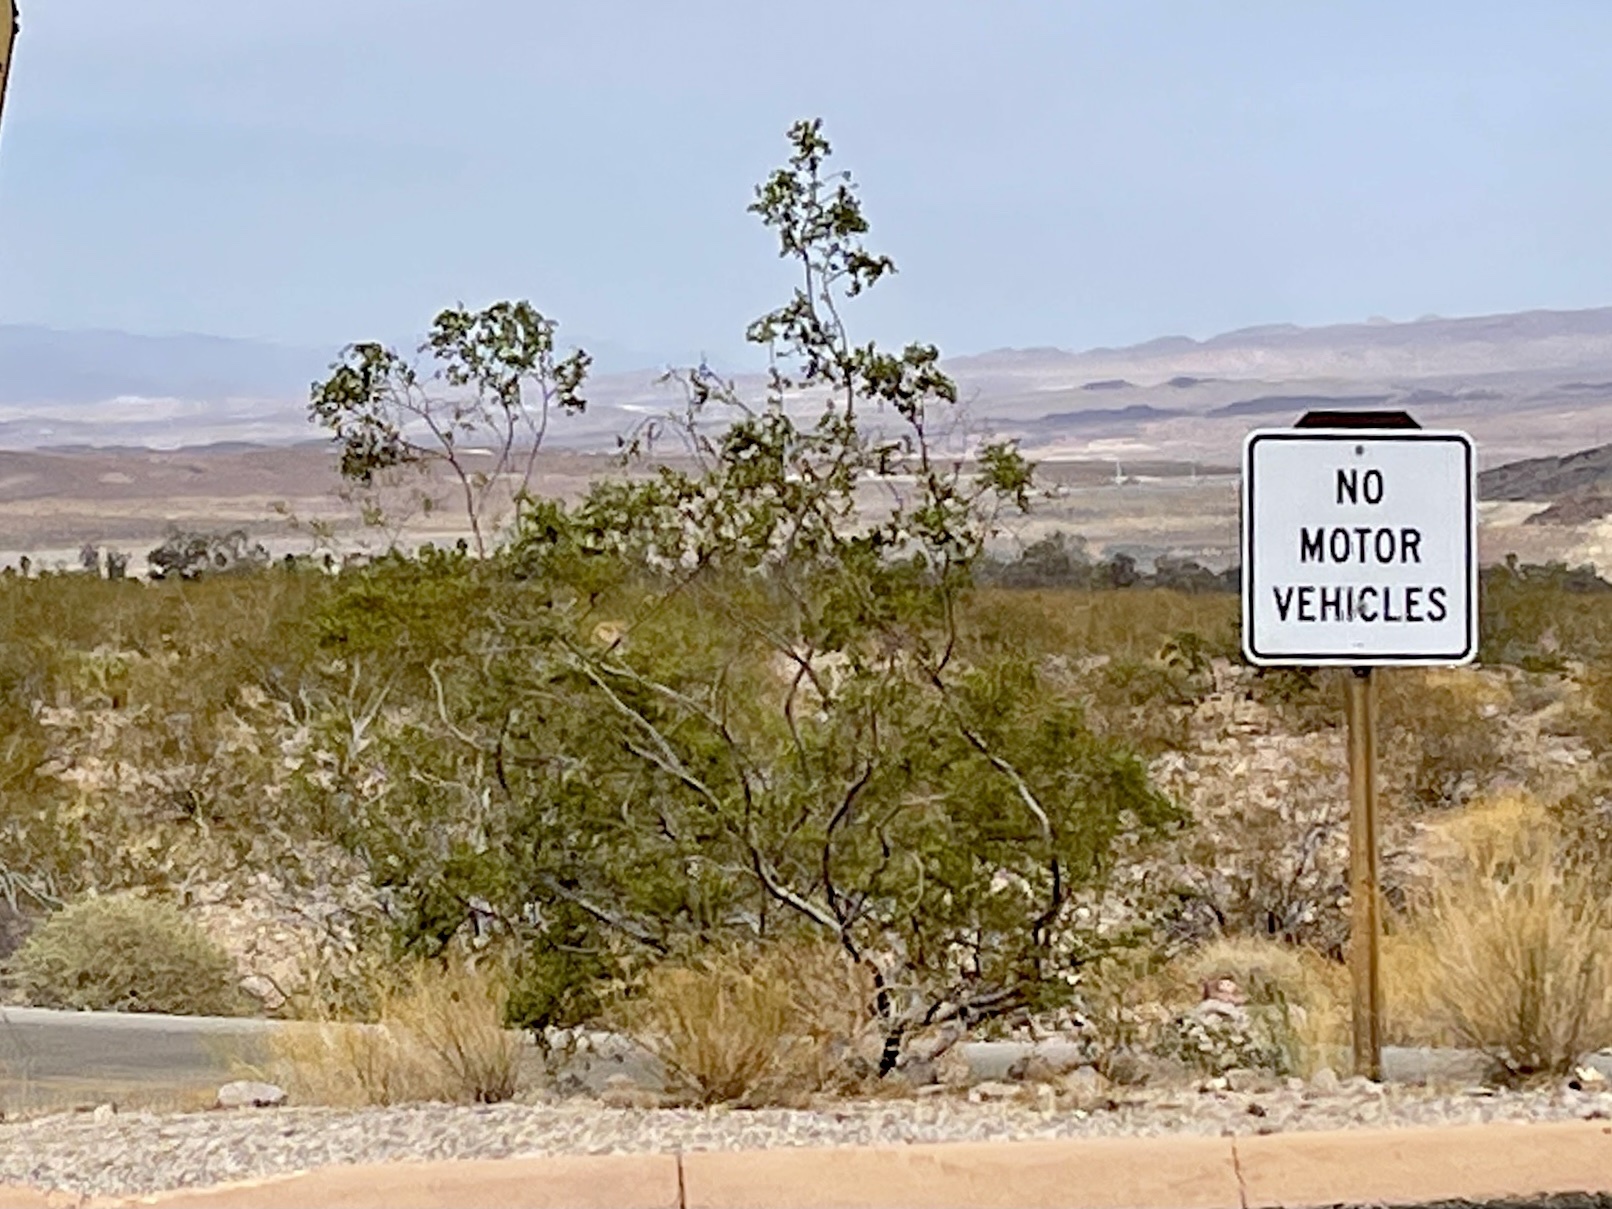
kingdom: Plantae
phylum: Tracheophyta
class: Magnoliopsida
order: Zygophyllales
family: Zygophyllaceae
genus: Larrea
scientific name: Larrea tridentata
